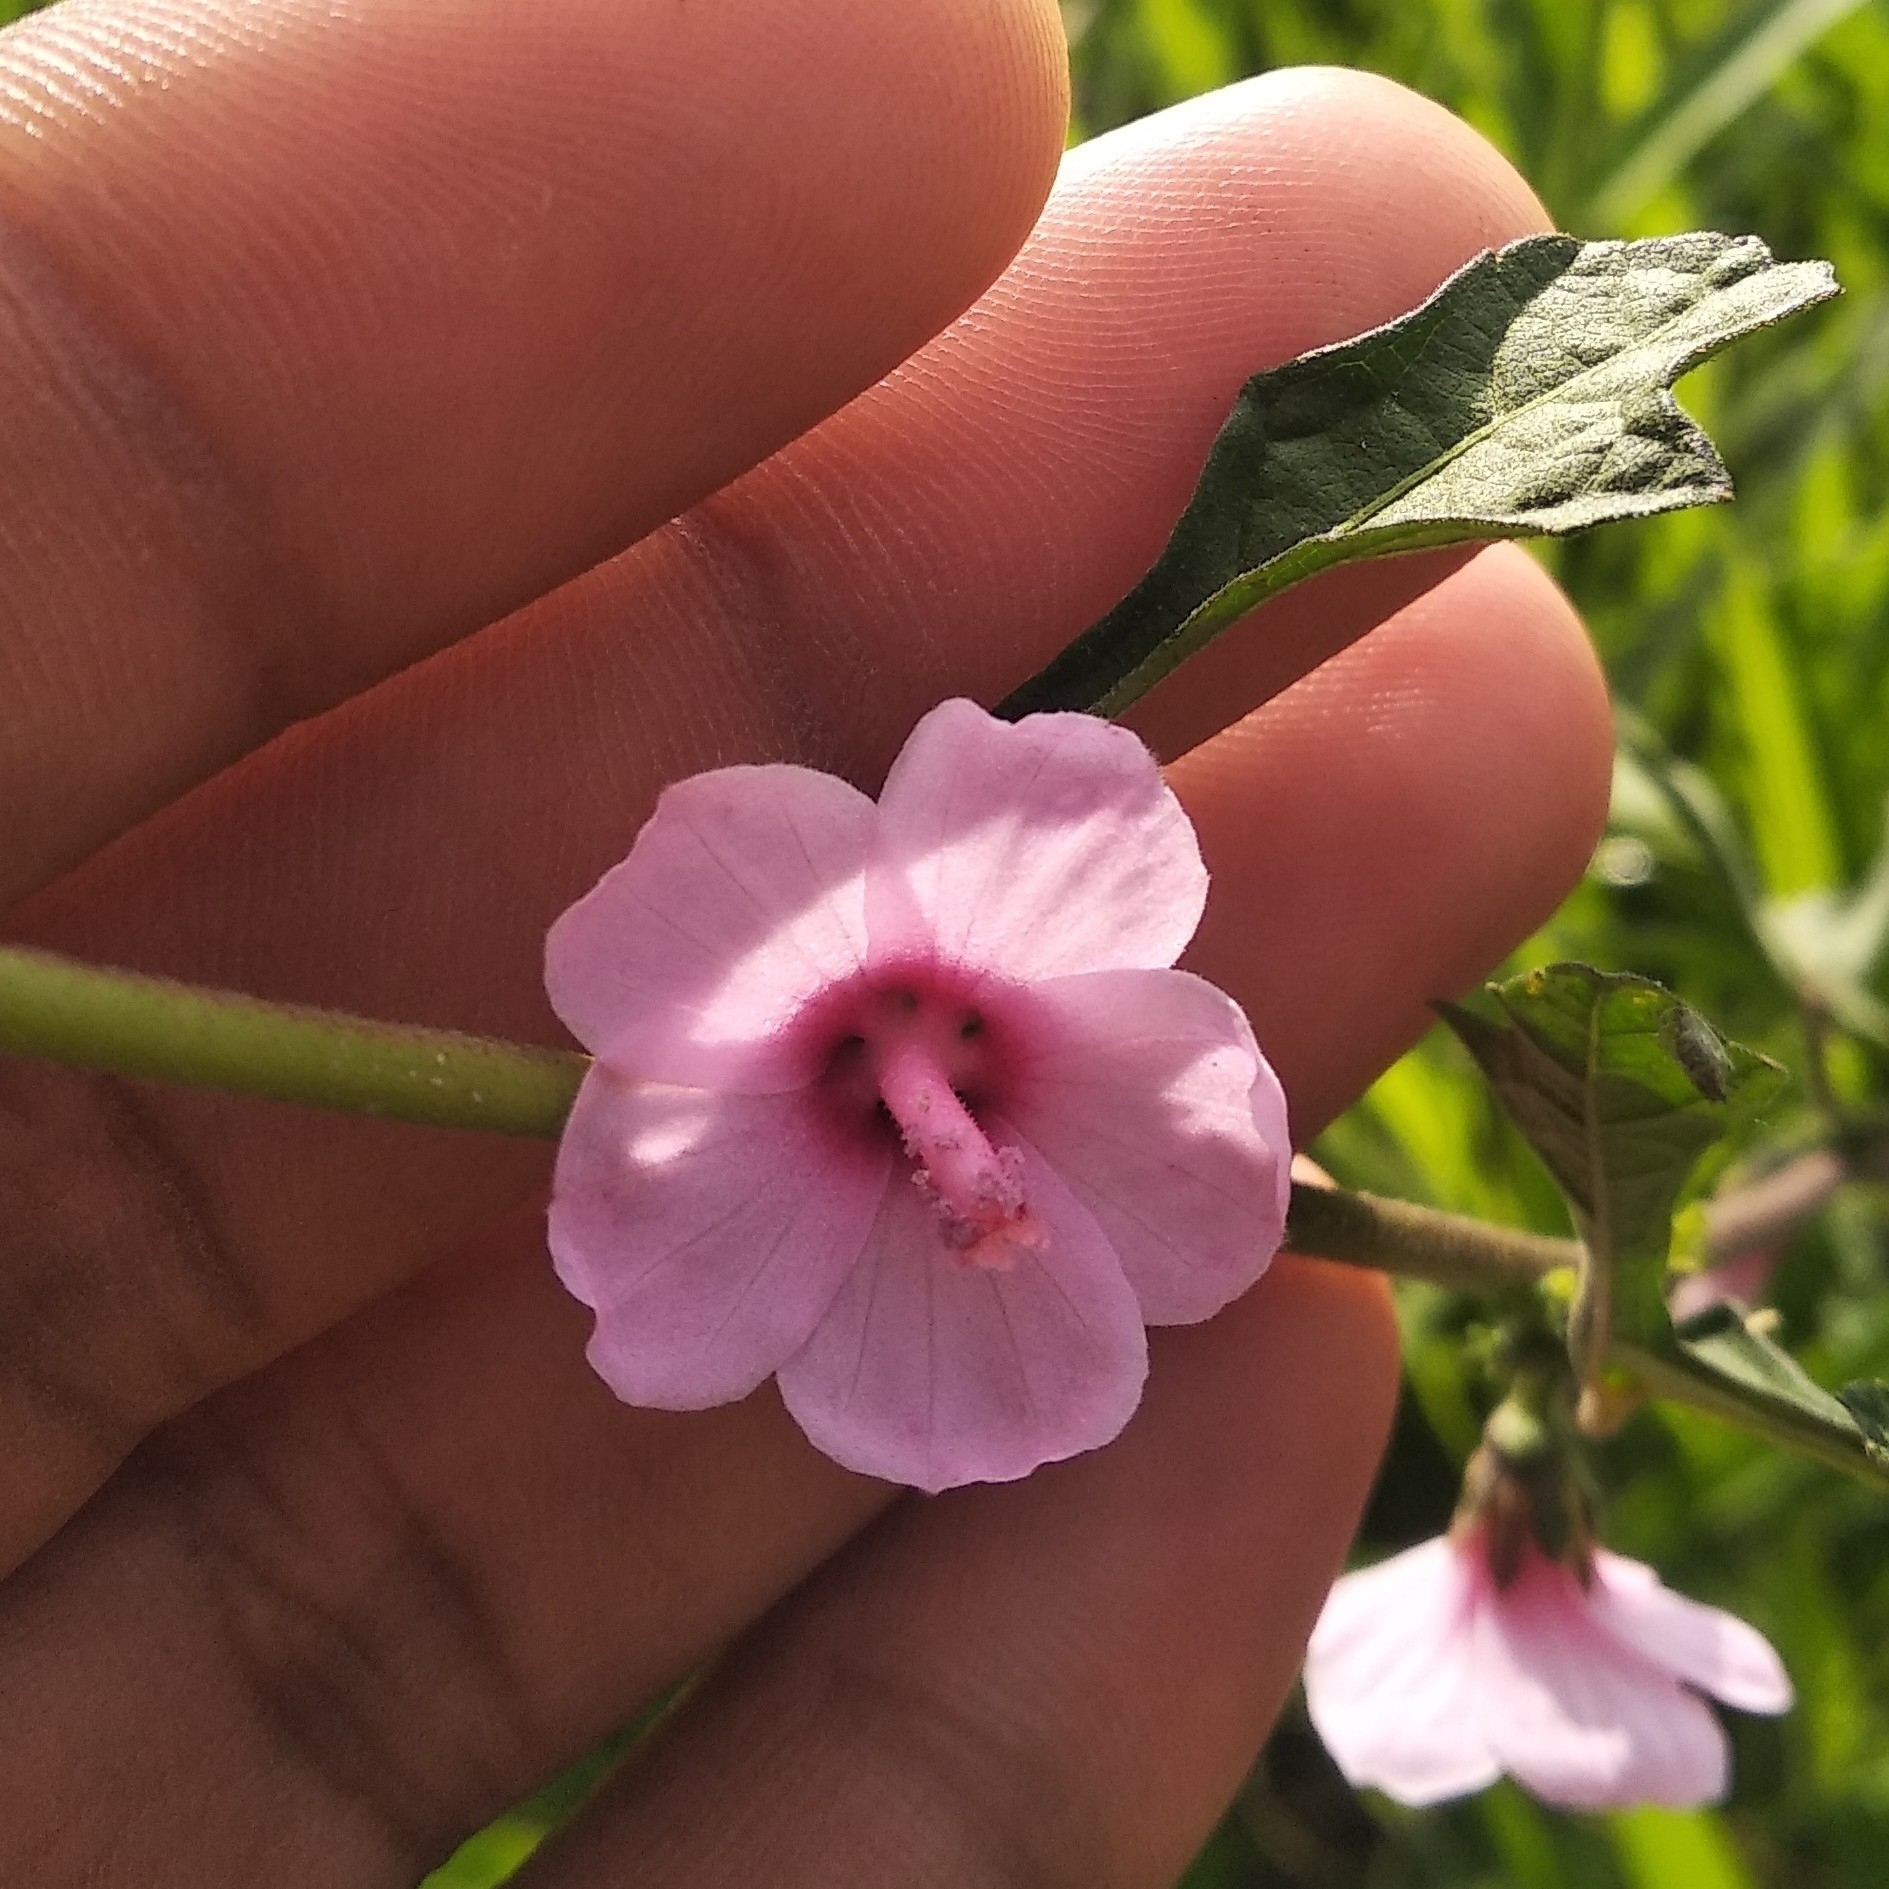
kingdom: Plantae
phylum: Tracheophyta
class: Magnoliopsida
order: Malvales
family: Malvaceae
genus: Urena
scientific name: Urena lobata
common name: Caesarweed
